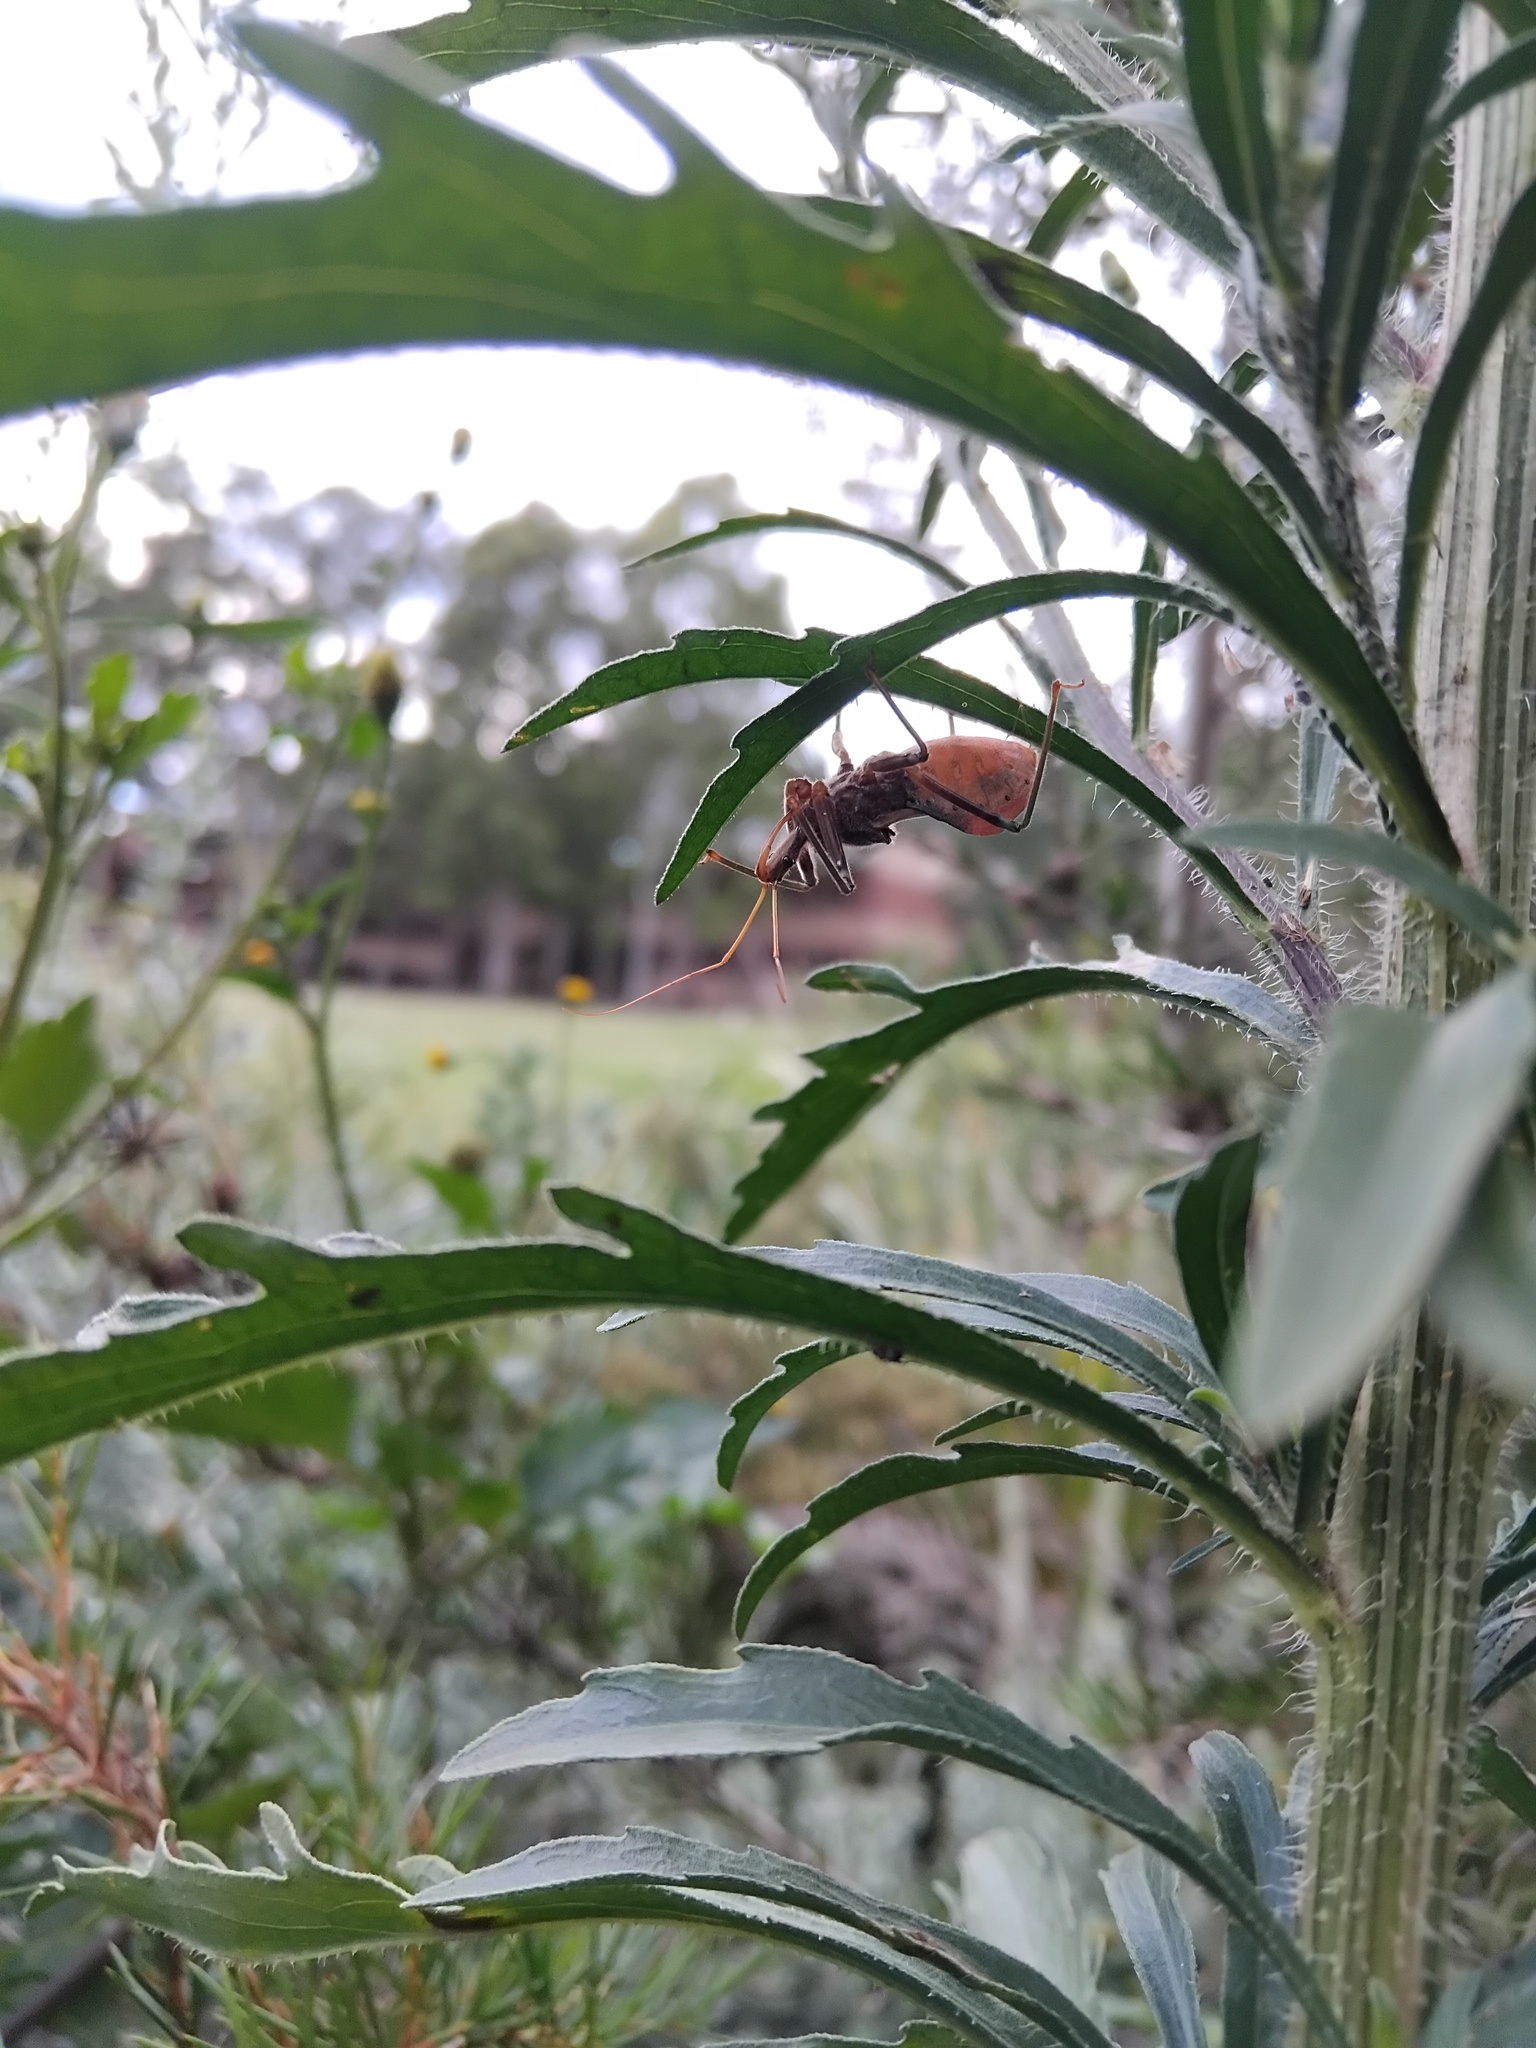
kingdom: Animalia
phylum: Arthropoda
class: Insecta
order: Hemiptera
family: Reduviidae
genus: Pristhesancus
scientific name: Pristhesancus plagipennis
